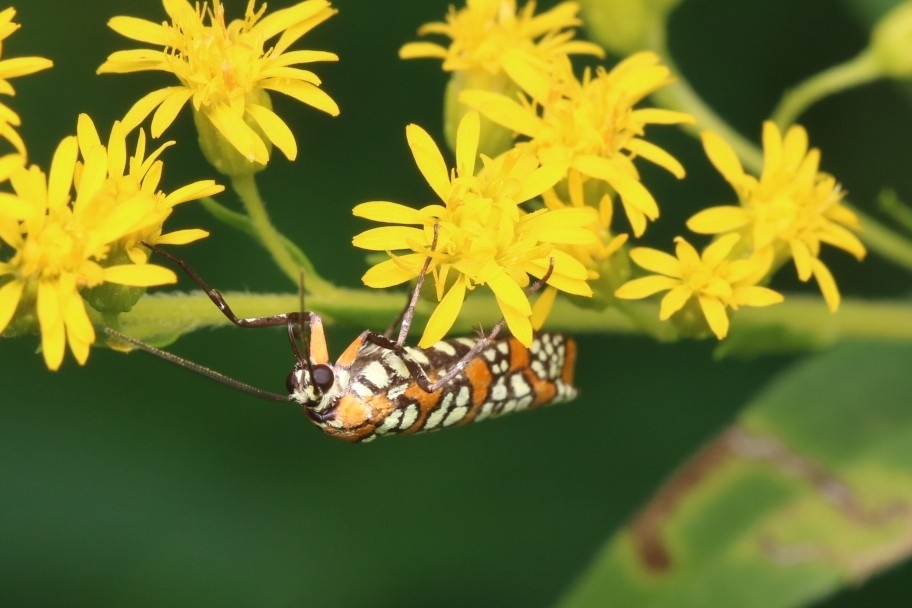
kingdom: Animalia
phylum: Arthropoda
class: Insecta
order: Lepidoptera
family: Attevidae
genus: Atteva
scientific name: Atteva punctella
